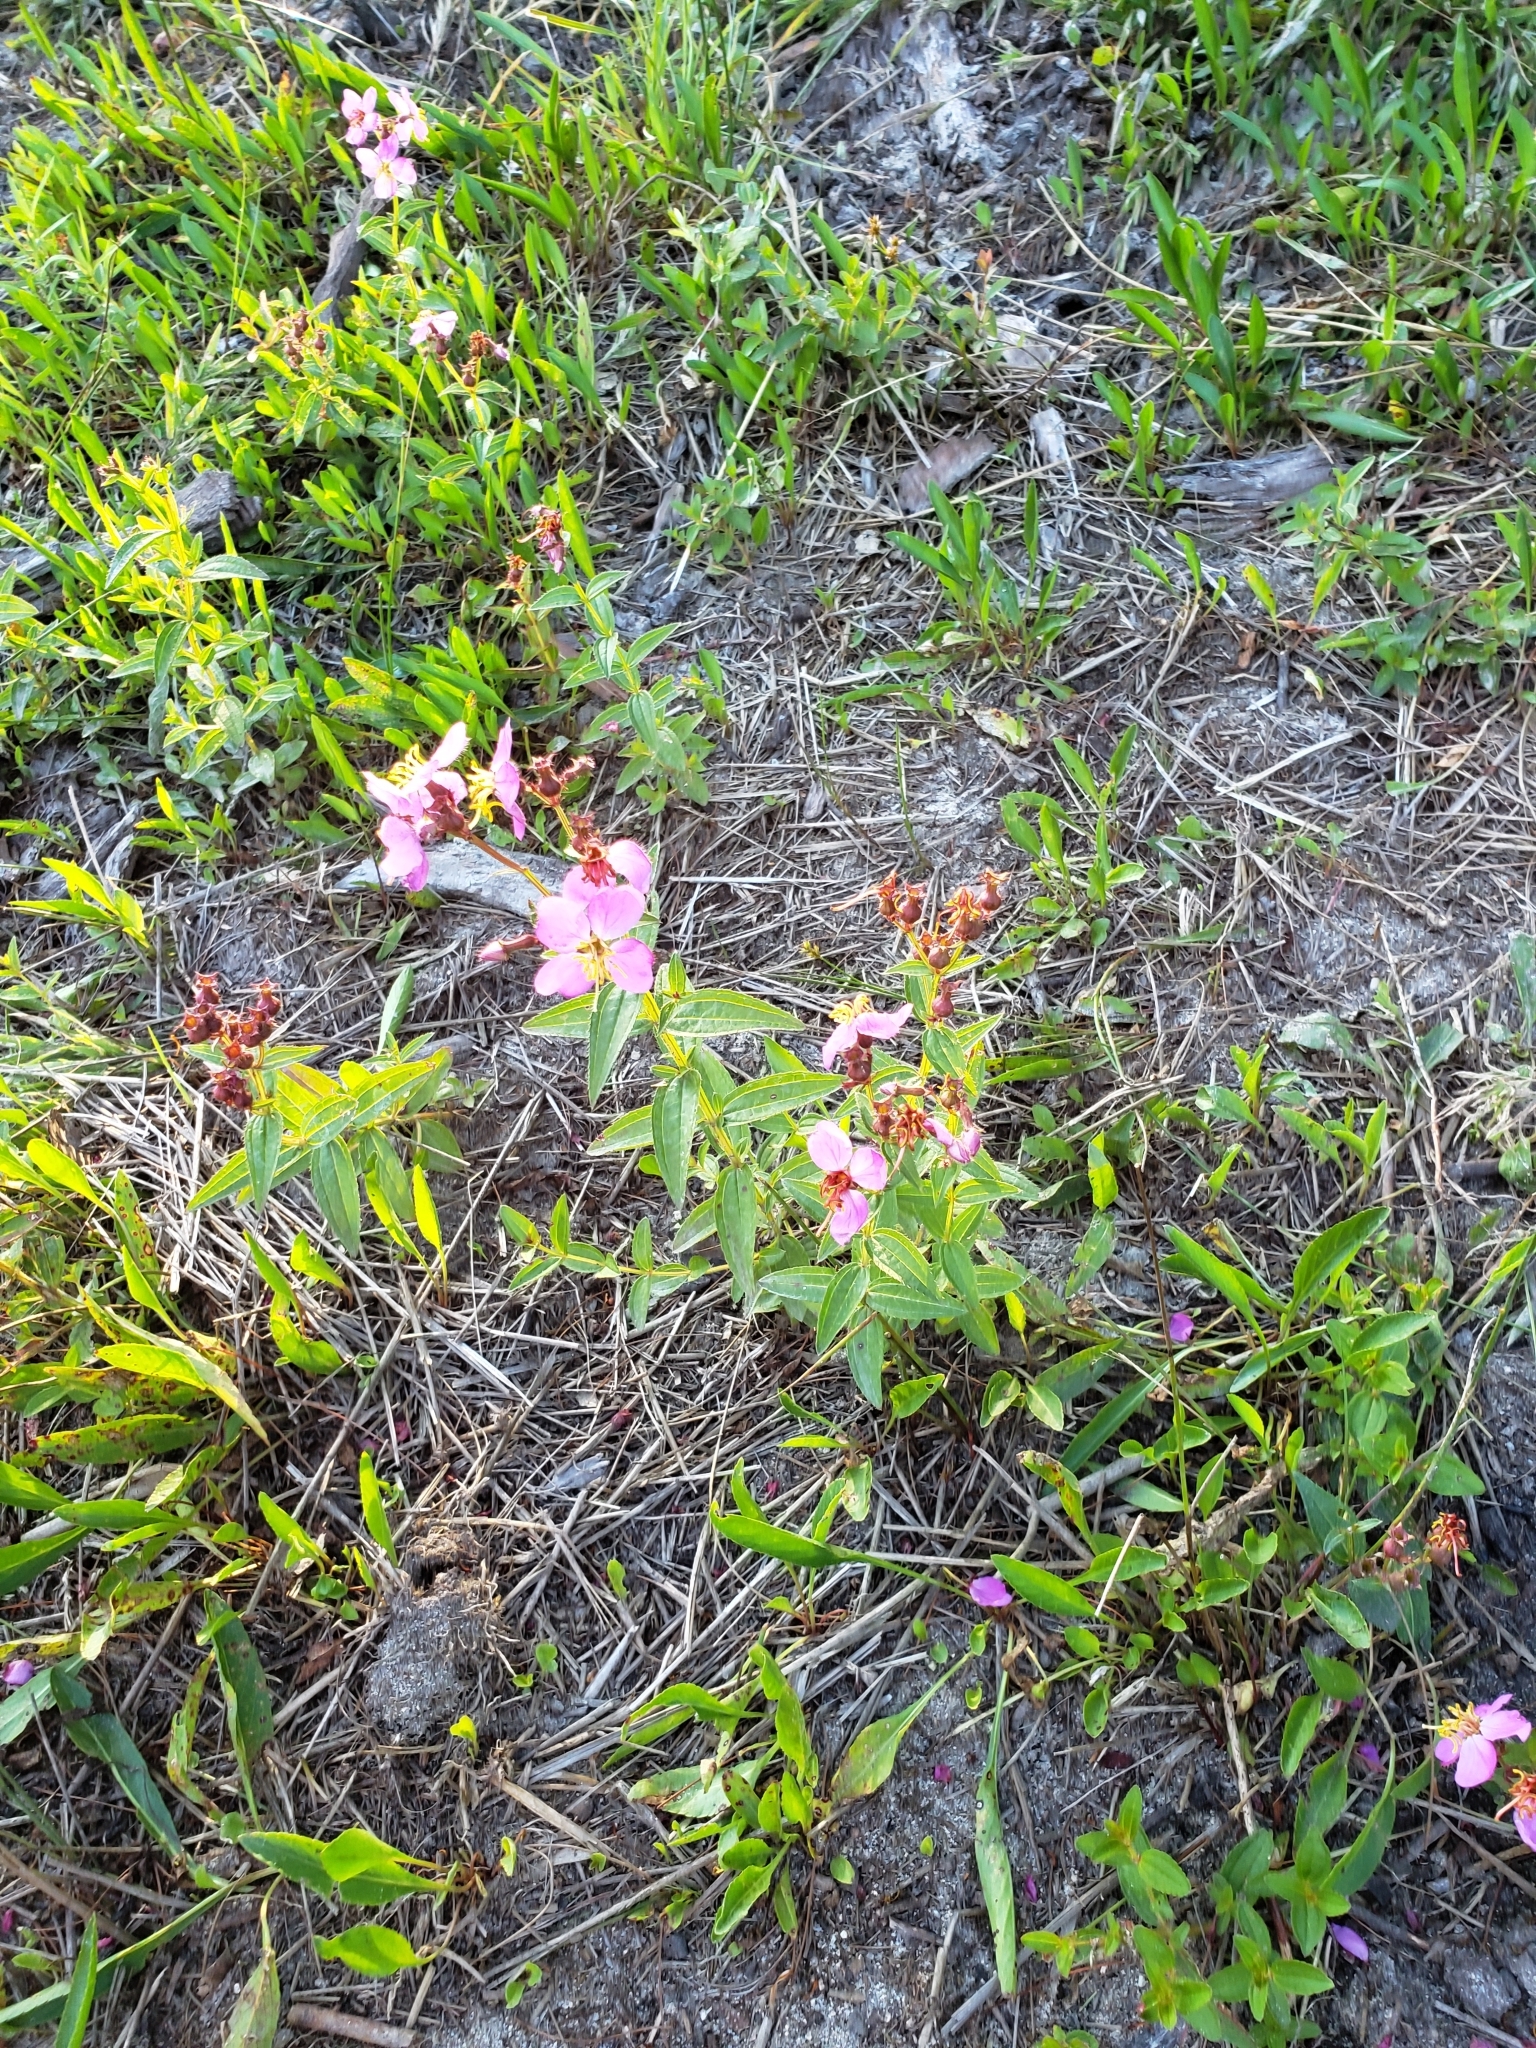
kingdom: Plantae
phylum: Tracheophyta
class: Magnoliopsida
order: Myrtales
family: Melastomataceae
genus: Rhexia
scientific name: Rhexia virginica
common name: Common meadow beauty
